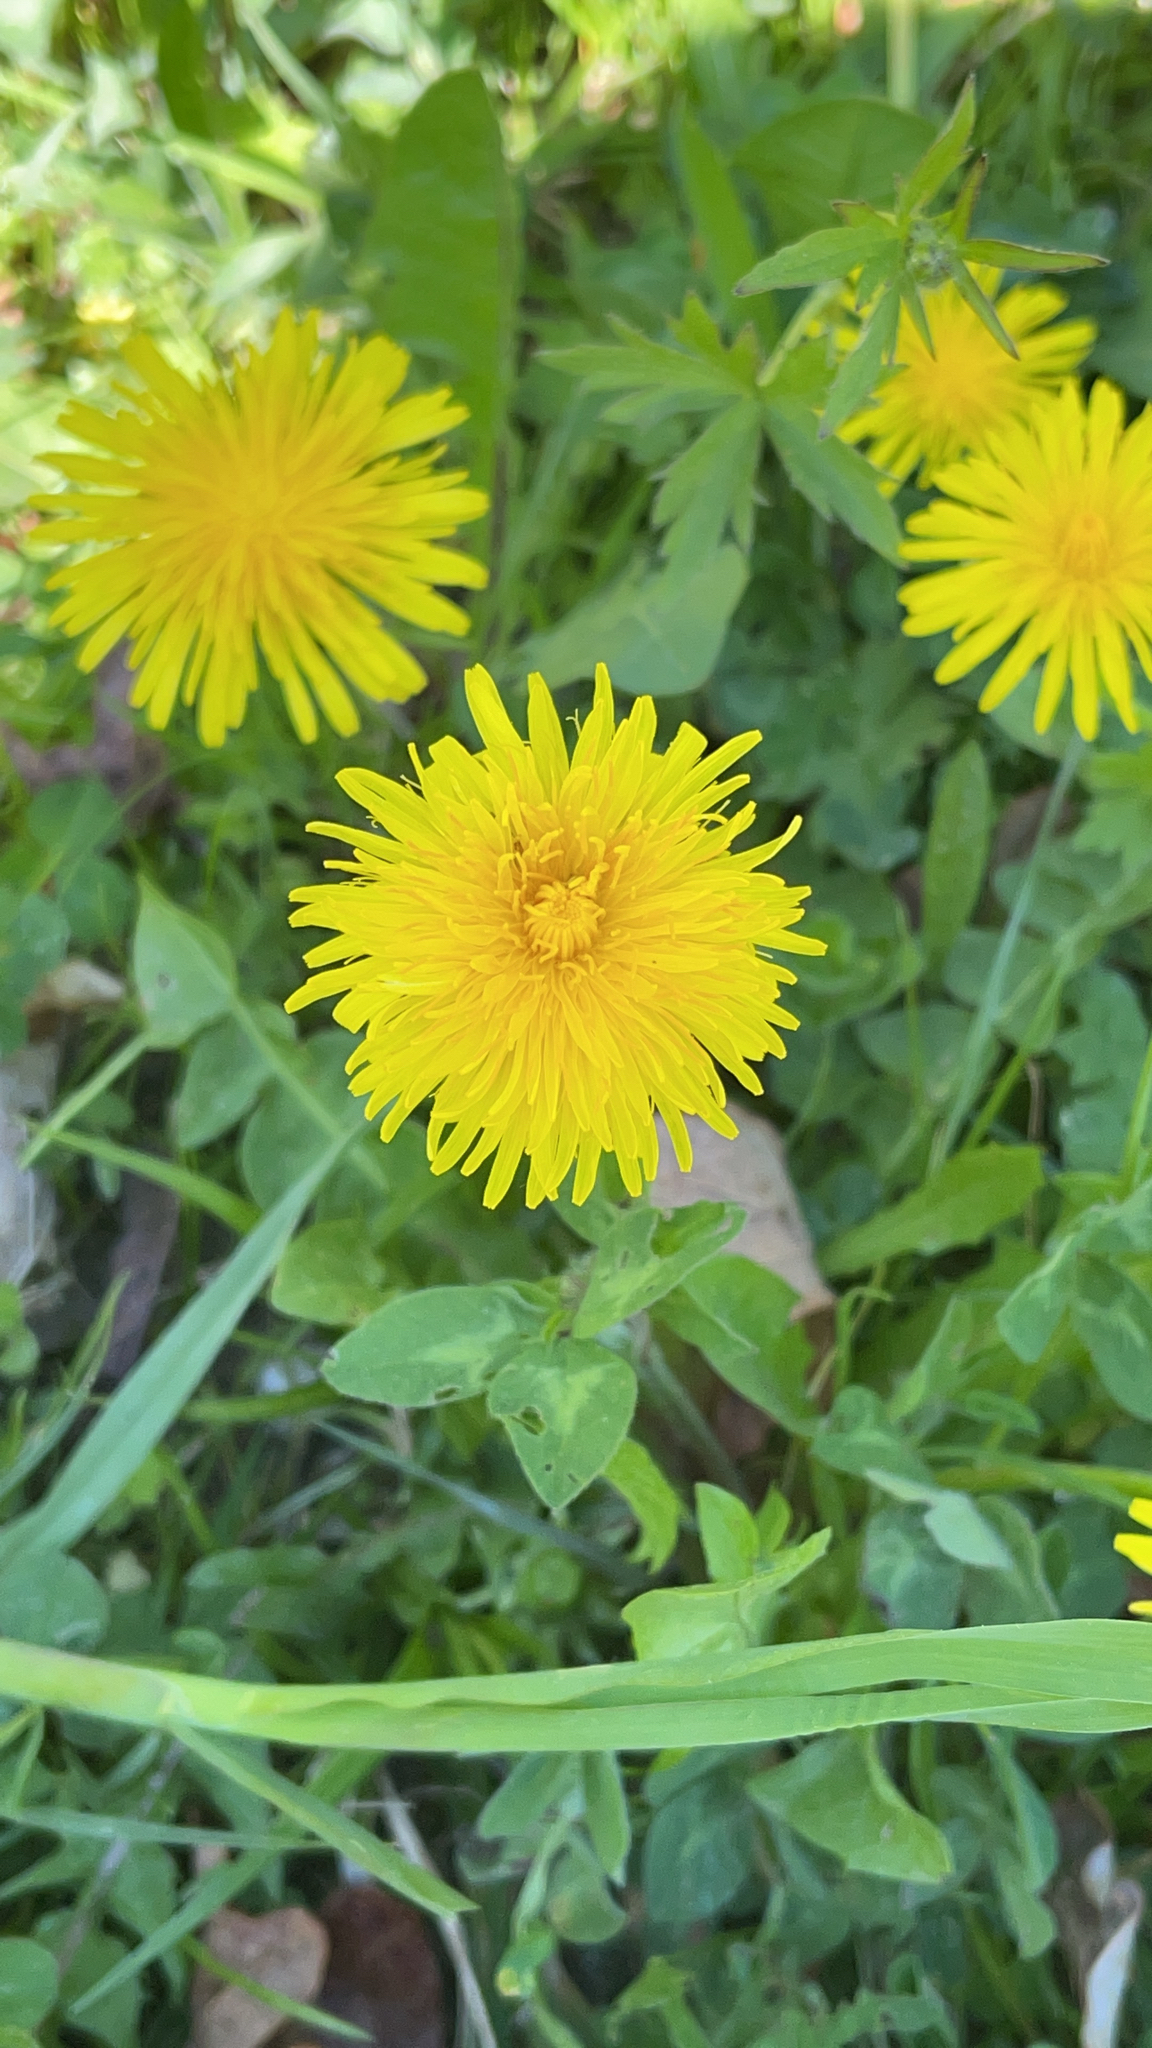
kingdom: Plantae
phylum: Tracheophyta
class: Magnoliopsida
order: Asterales
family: Asteraceae
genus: Taraxacum
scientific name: Taraxacum officinale
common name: Common dandelion
